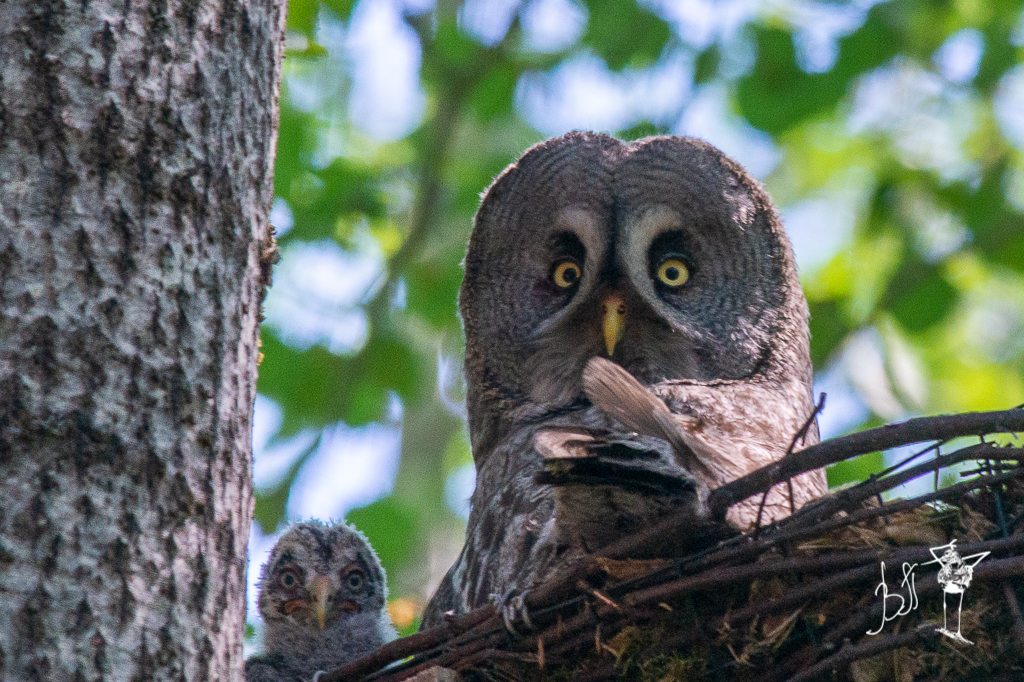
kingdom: Animalia
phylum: Chordata
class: Aves
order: Strigiformes
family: Strigidae
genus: Strix
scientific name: Strix nebulosa
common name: Great grey owl
